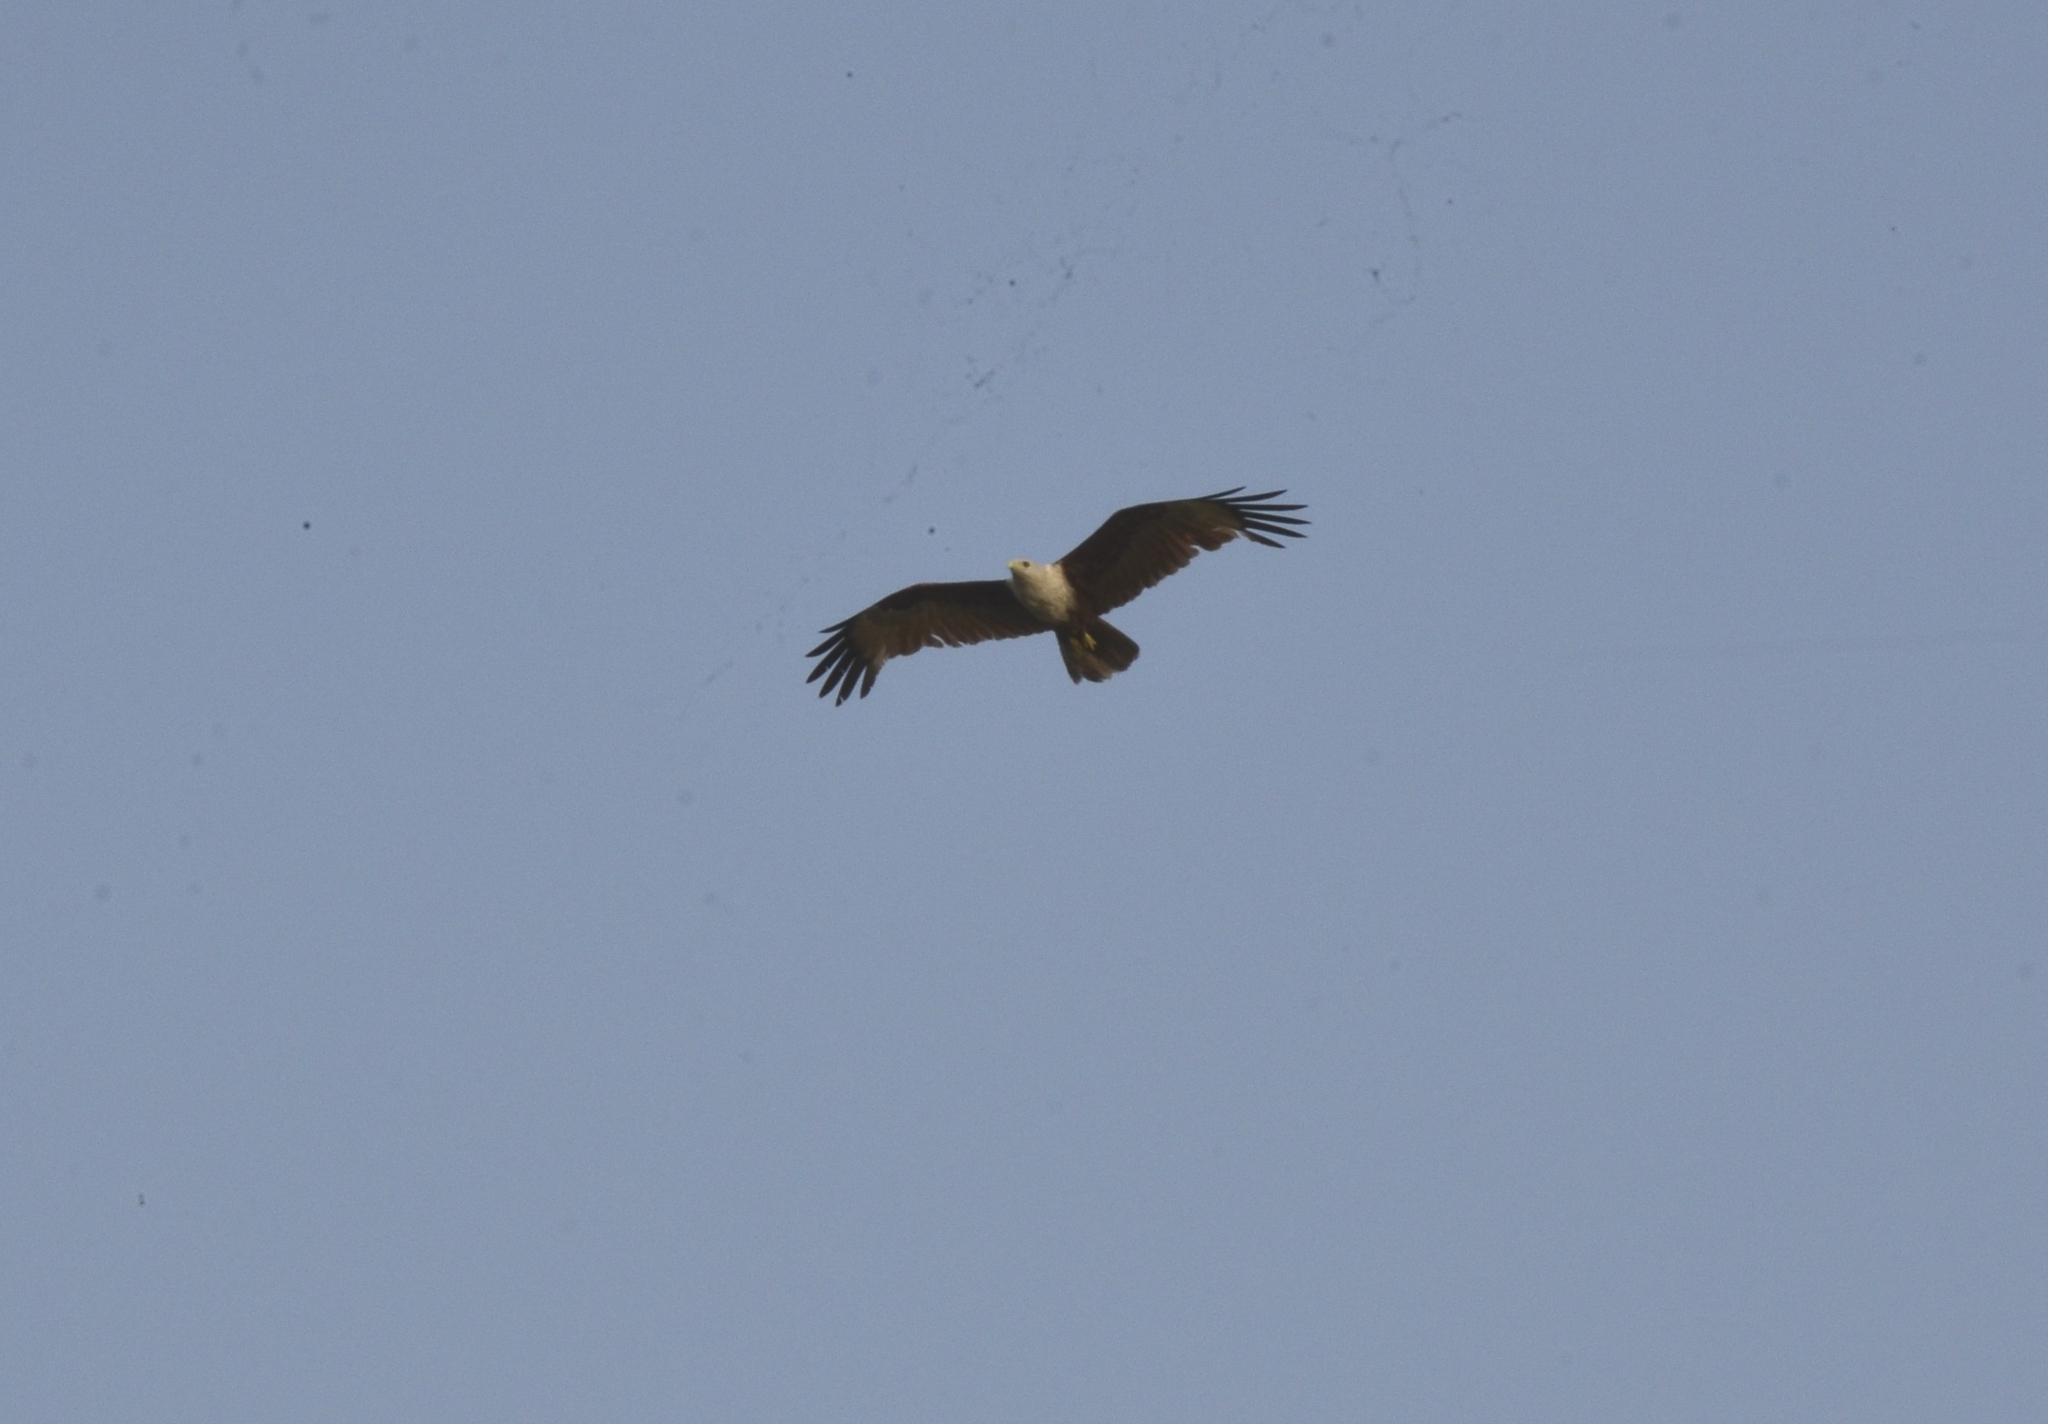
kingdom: Animalia
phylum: Chordata
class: Aves
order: Accipitriformes
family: Accipitridae
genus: Haliastur
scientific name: Haliastur indus
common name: Brahminy kite
